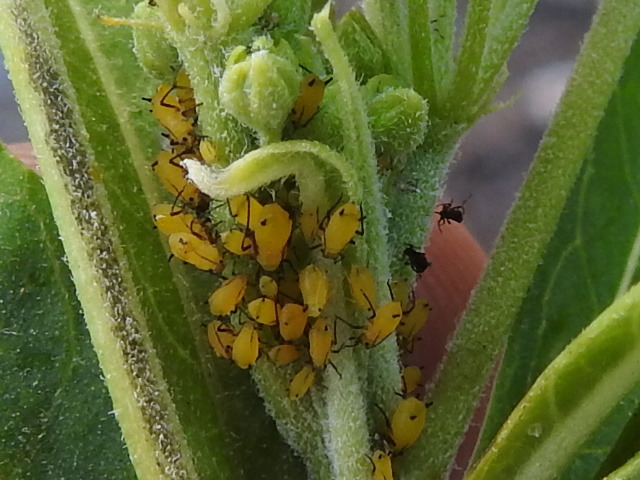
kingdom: Animalia
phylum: Arthropoda
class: Insecta
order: Hemiptera
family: Aphididae
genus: Aphis
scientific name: Aphis nerii
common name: Oleander aphid
